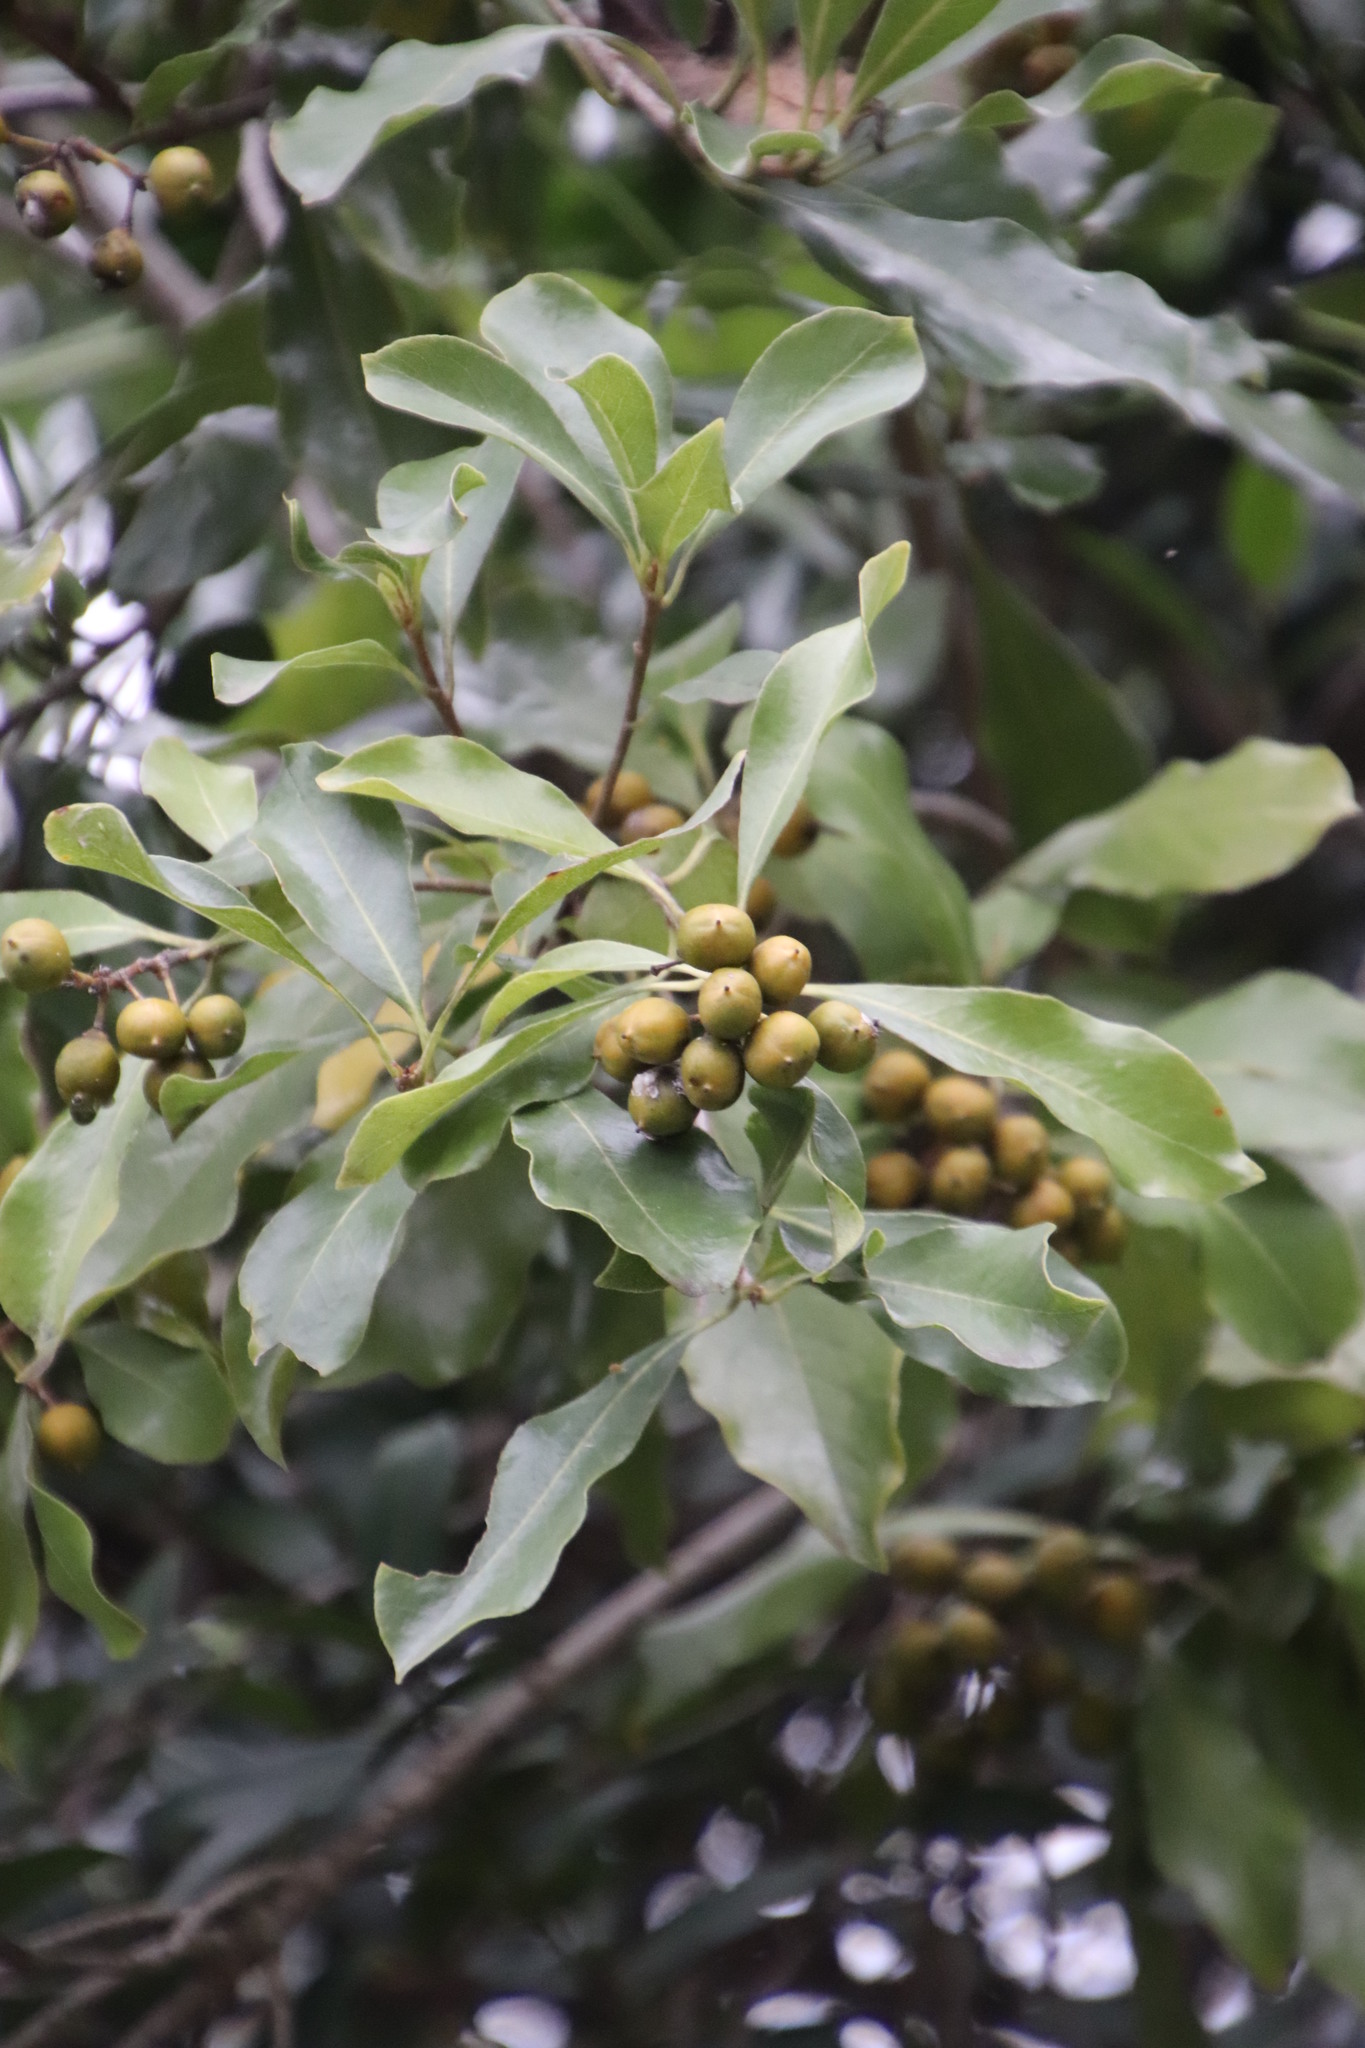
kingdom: Plantae
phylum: Tracheophyta
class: Magnoliopsida
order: Apiales
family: Pittosporaceae
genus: Pittosporum
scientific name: Pittosporum viridiflorum
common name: Cape cheesewood
